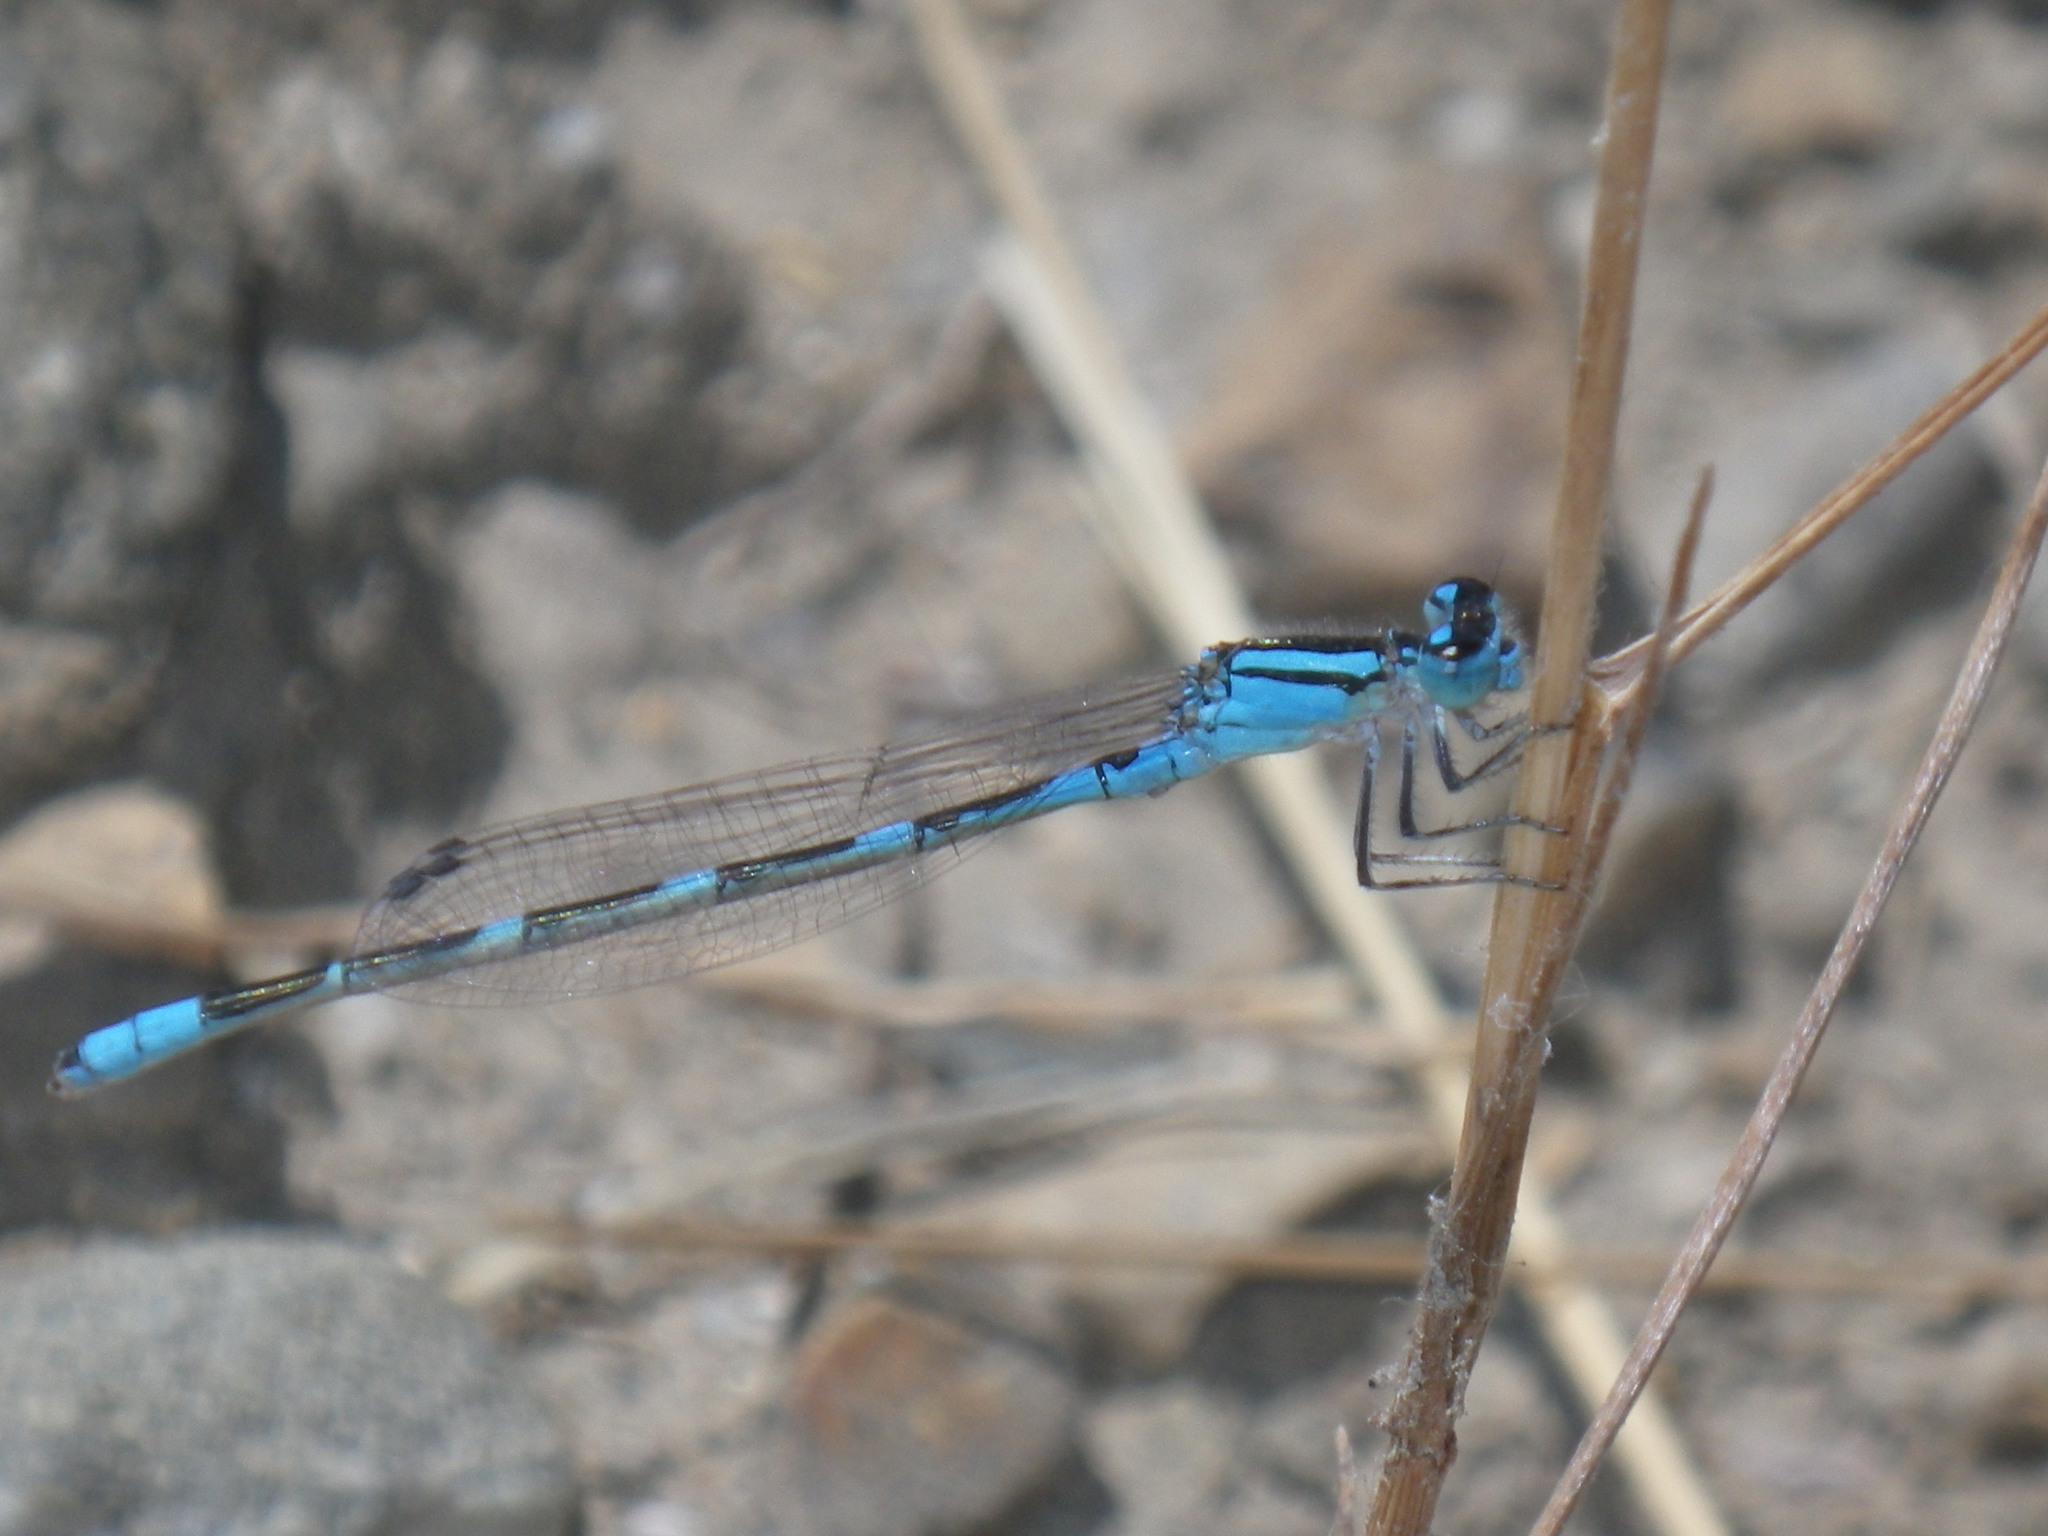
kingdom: Animalia
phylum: Arthropoda
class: Insecta
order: Odonata
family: Coenagrionidae
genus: Enallagma
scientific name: Enallagma carunculatum
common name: Tule bluet
